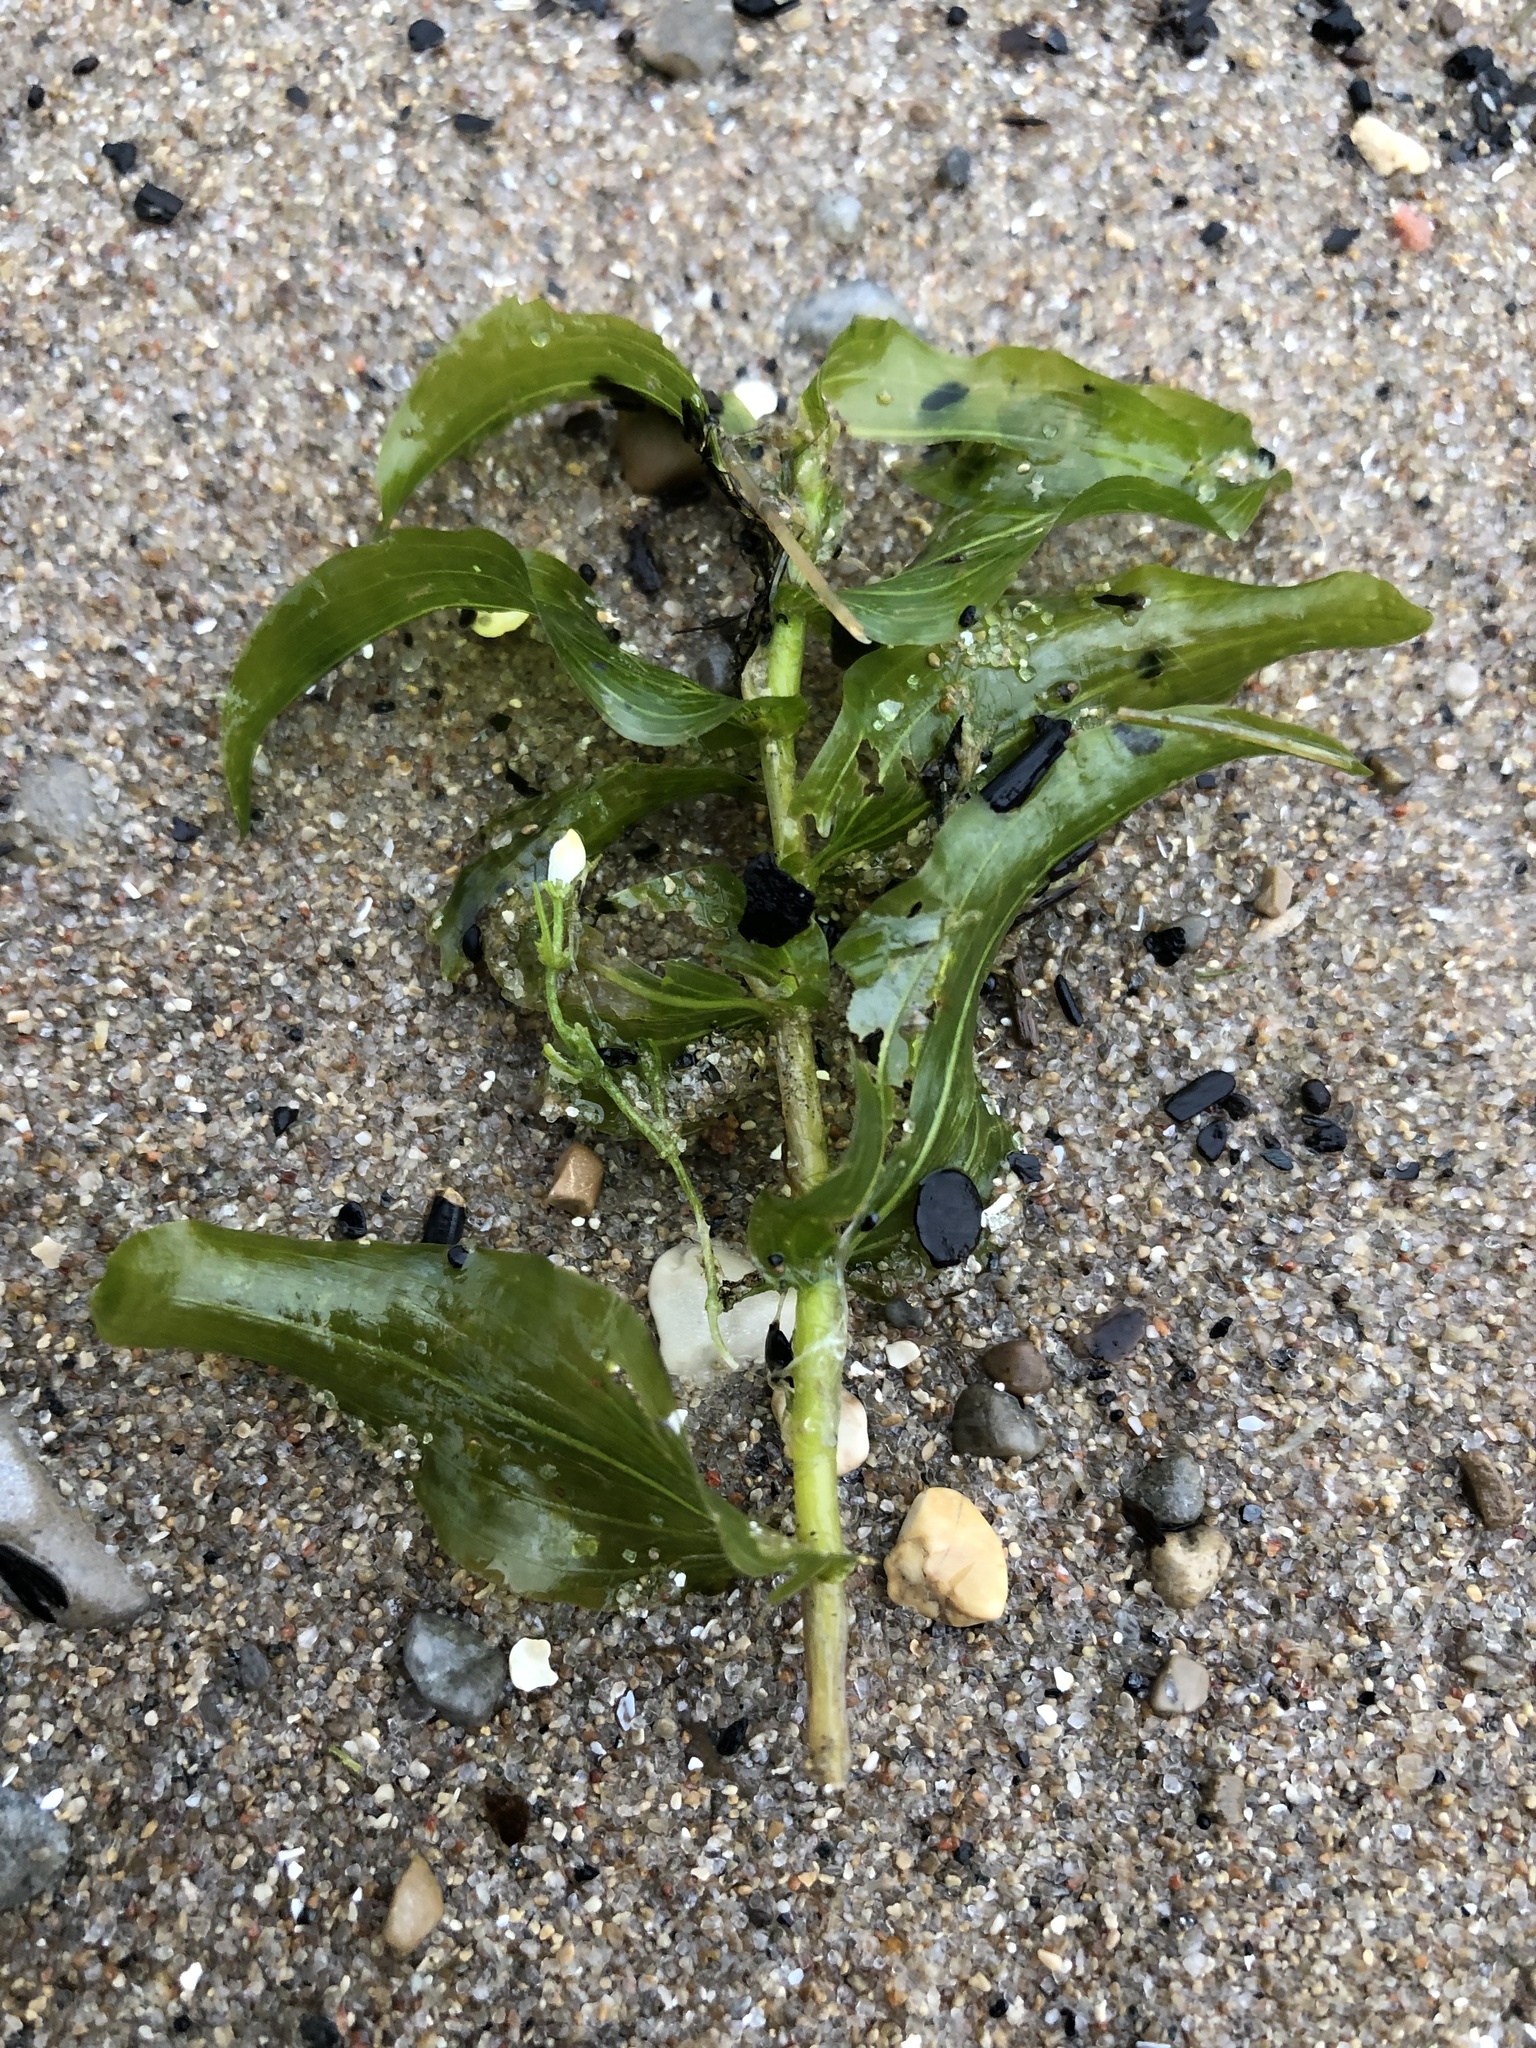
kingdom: Plantae
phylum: Tracheophyta
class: Liliopsida
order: Alismatales
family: Potamogetonaceae
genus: Potamogeton
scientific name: Potamogeton richardsonii
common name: Richardson's pondweed
